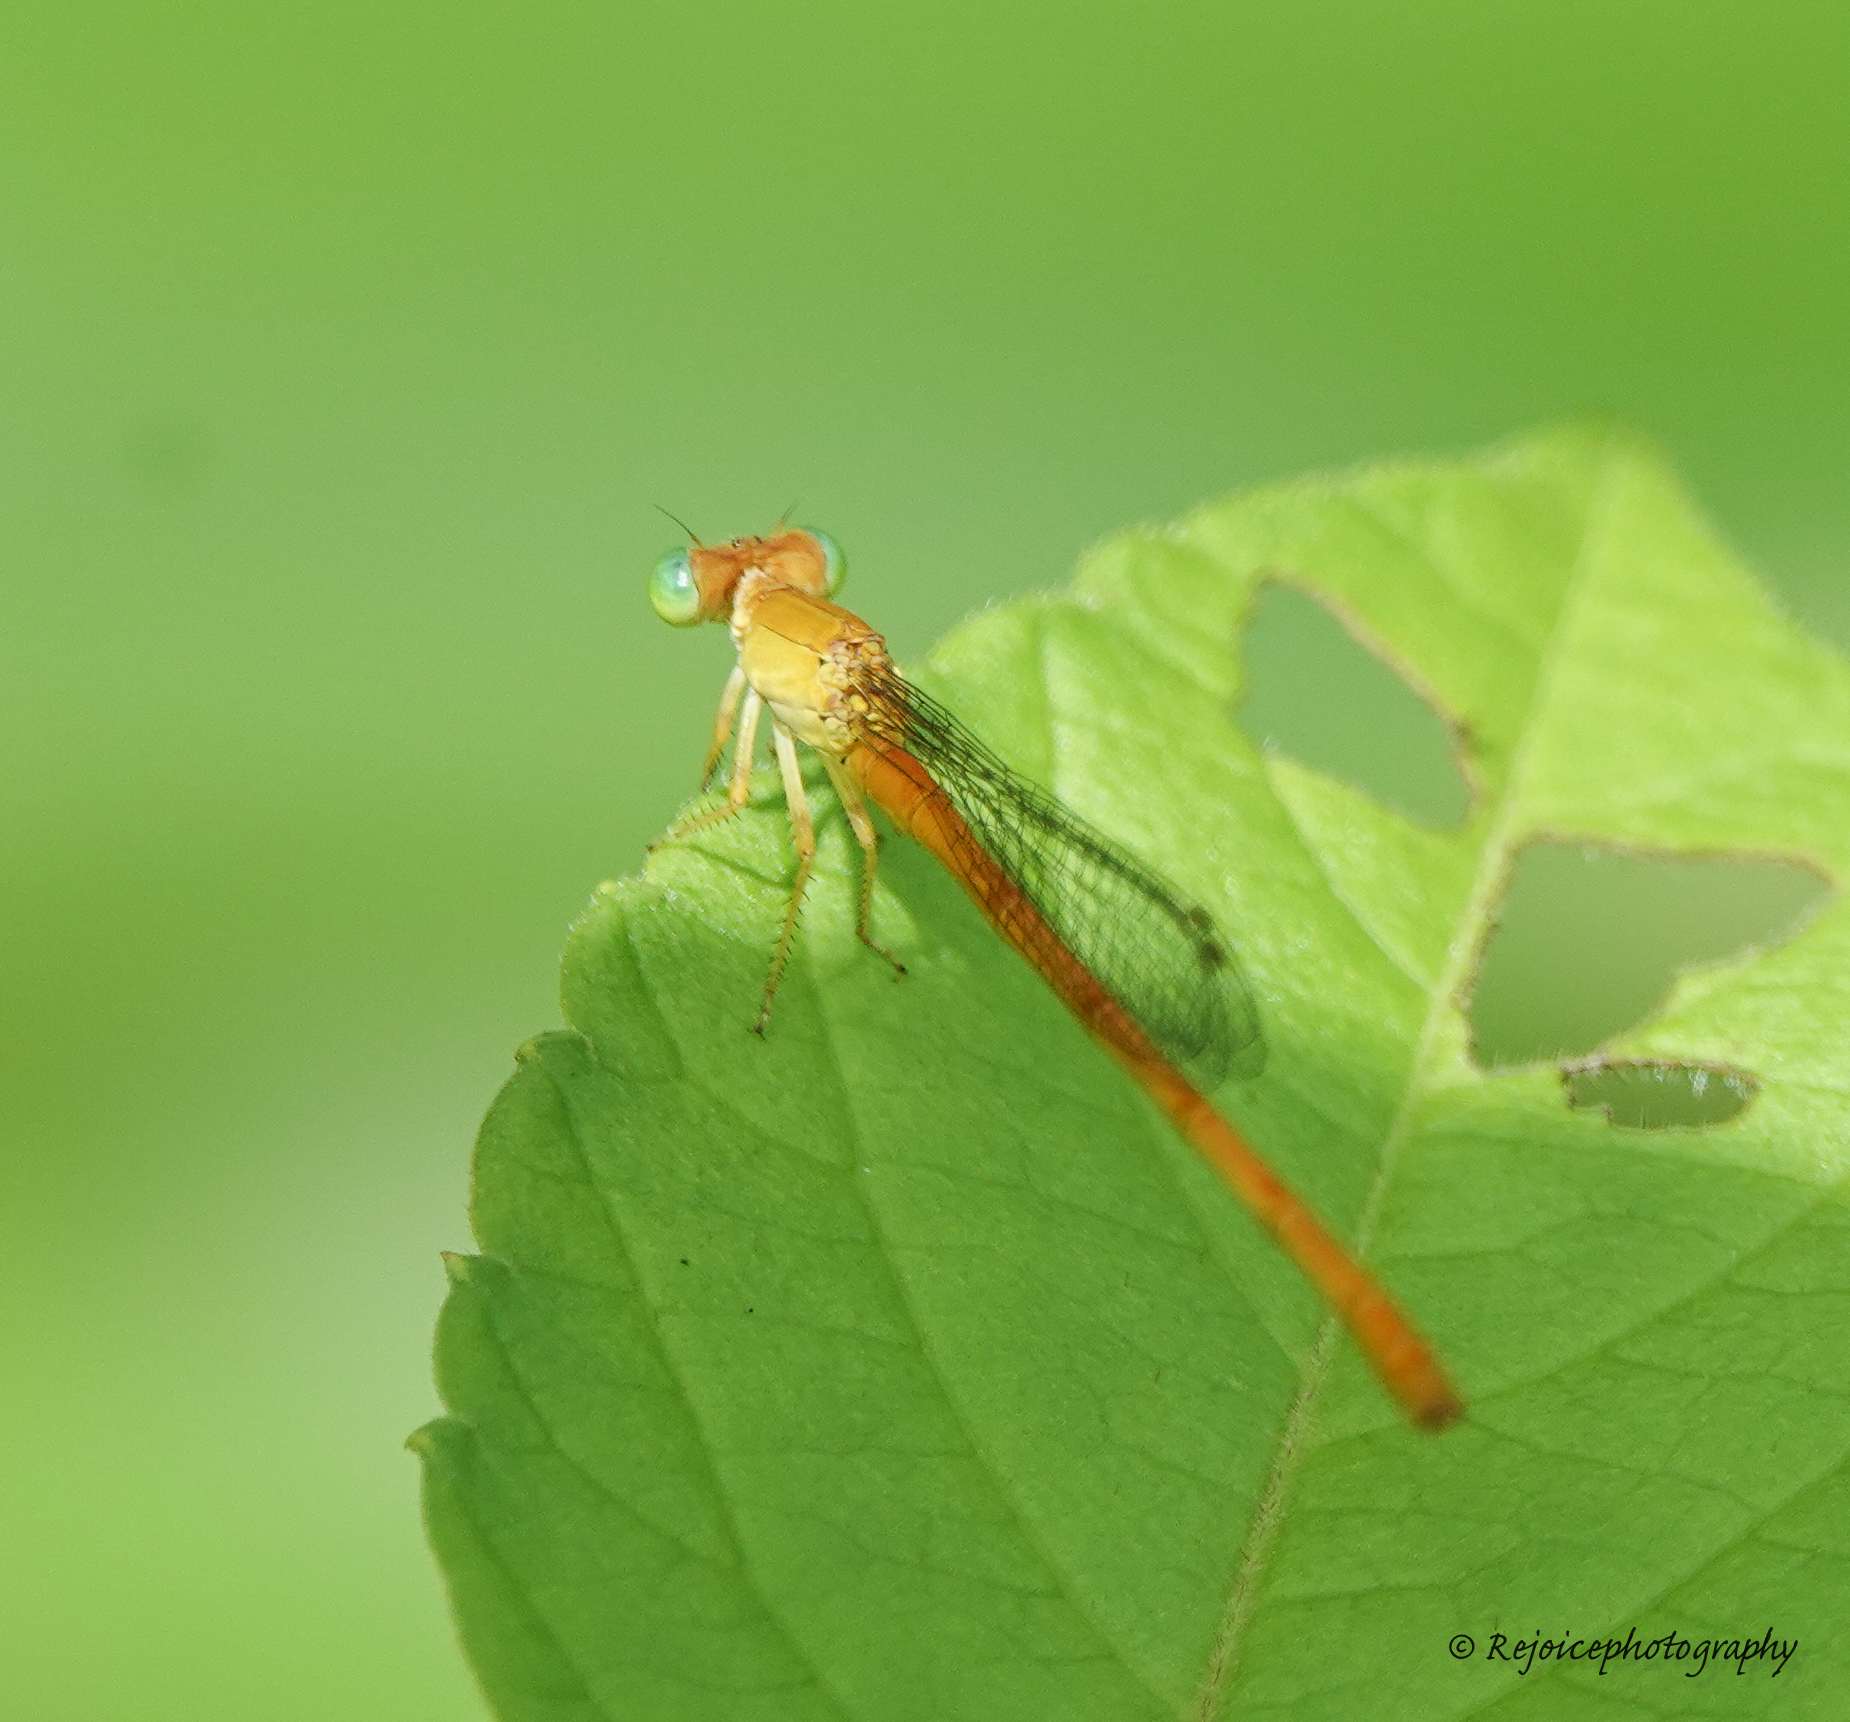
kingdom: Animalia
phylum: Arthropoda
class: Insecta
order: Odonata
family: Coenagrionidae
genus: Ceriagrion
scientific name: Ceriagrion coromandelianum
